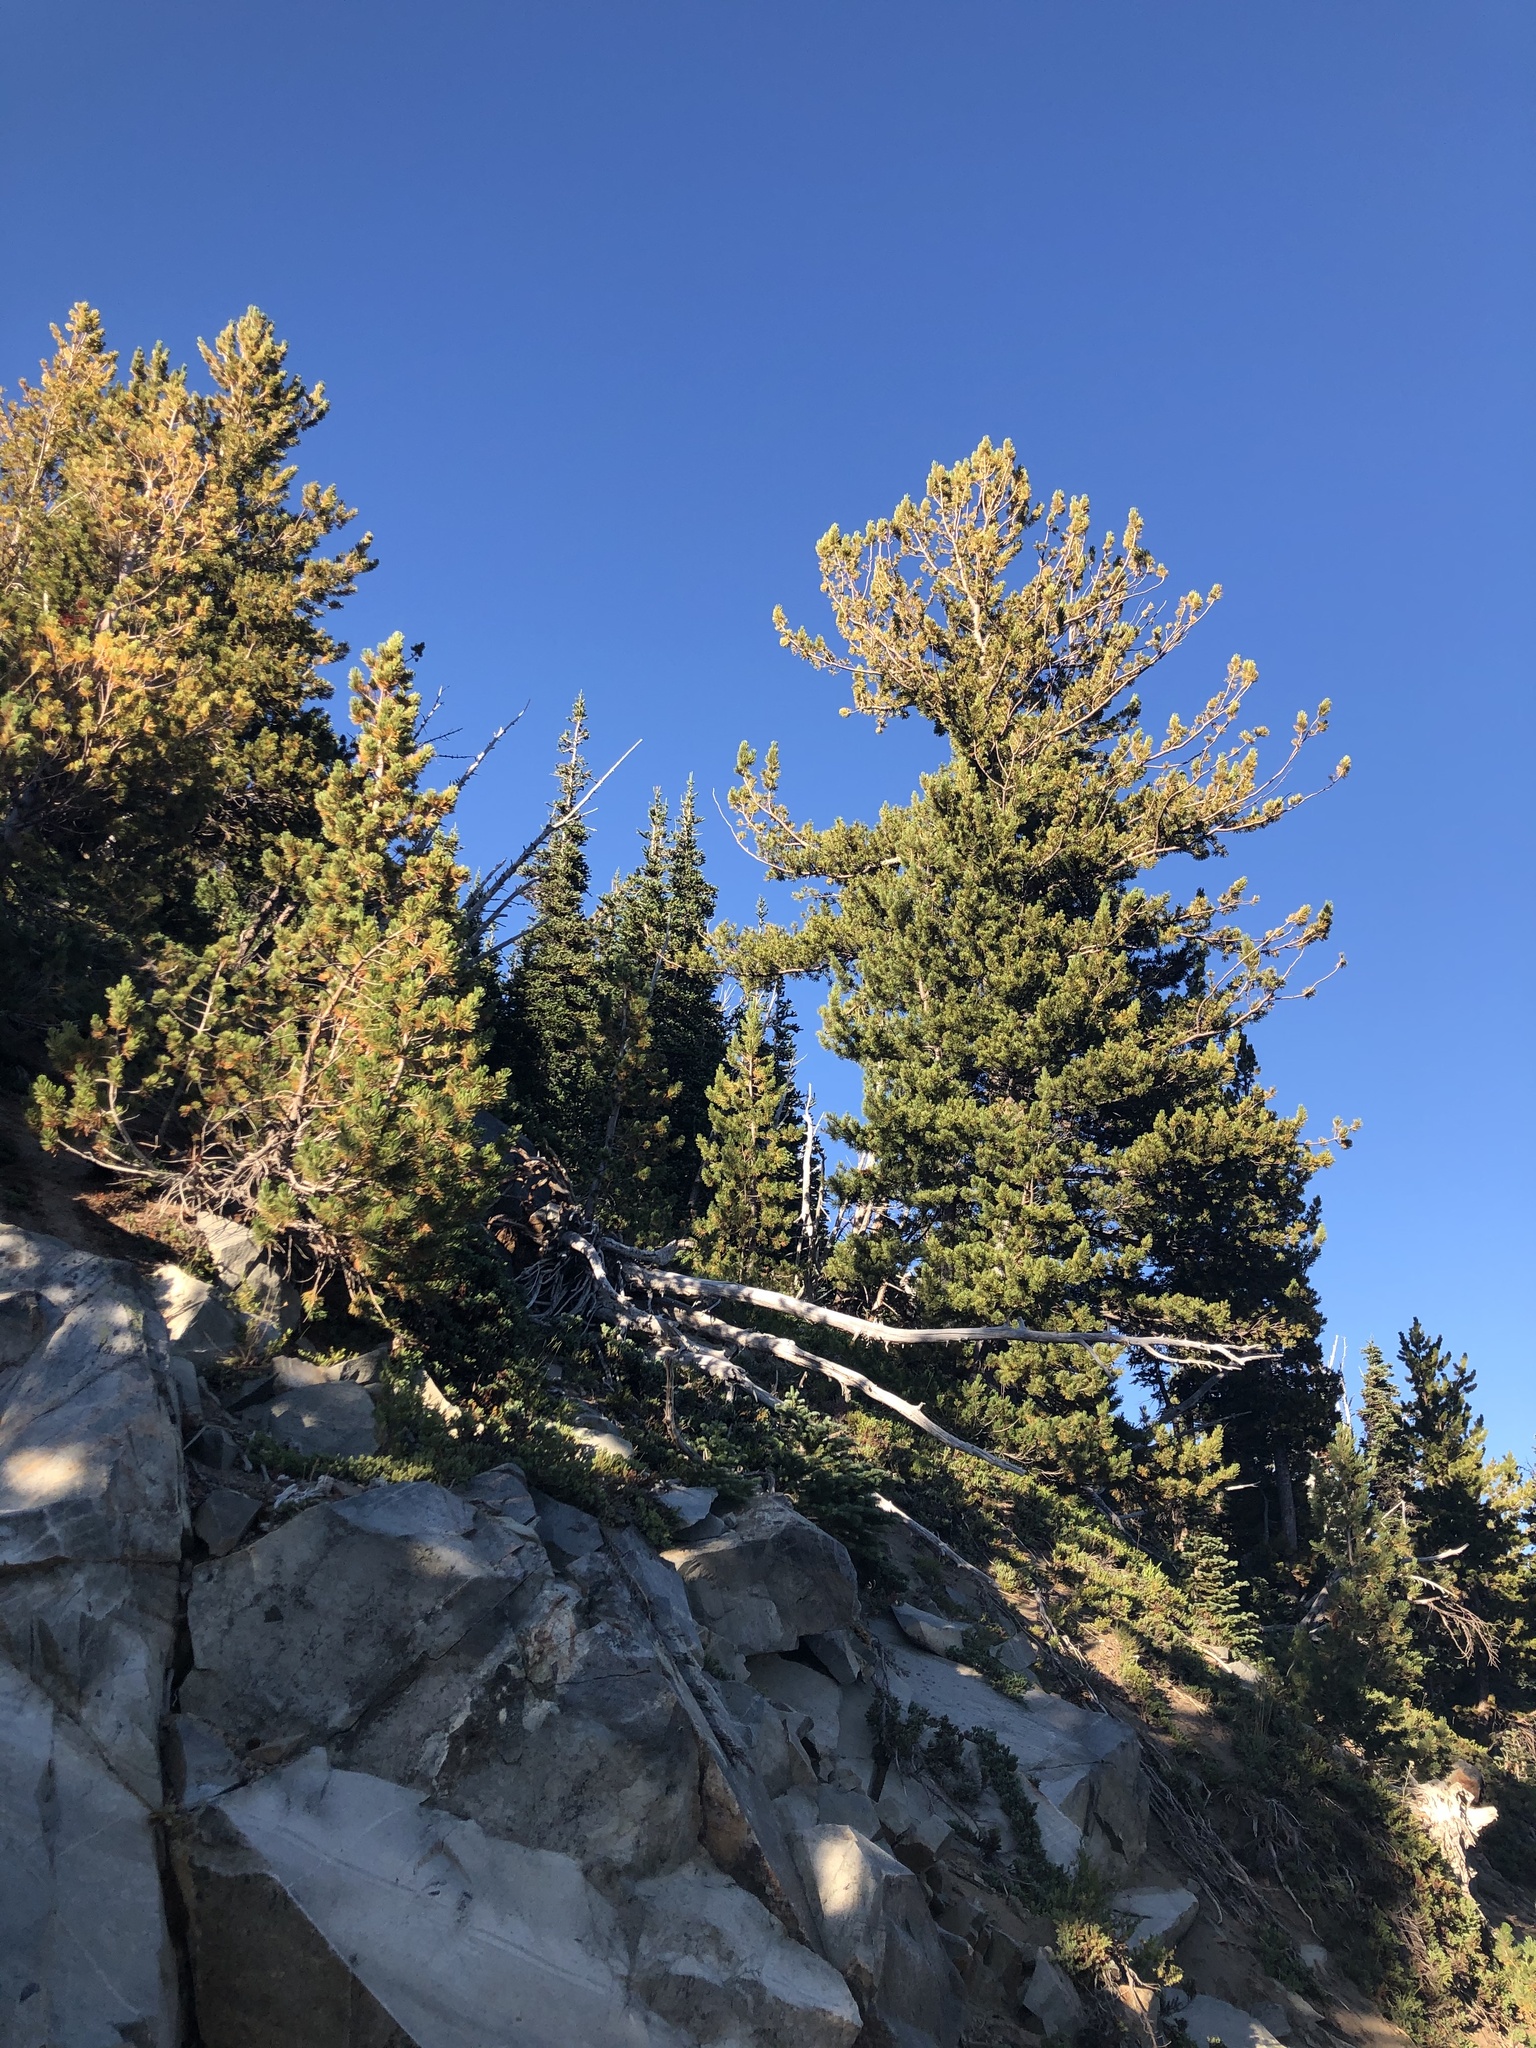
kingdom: Plantae
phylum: Tracheophyta
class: Pinopsida
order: Pinales
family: Pinaceae
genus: Pinus
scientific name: Pinus albicaulis
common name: Whitebark pine
